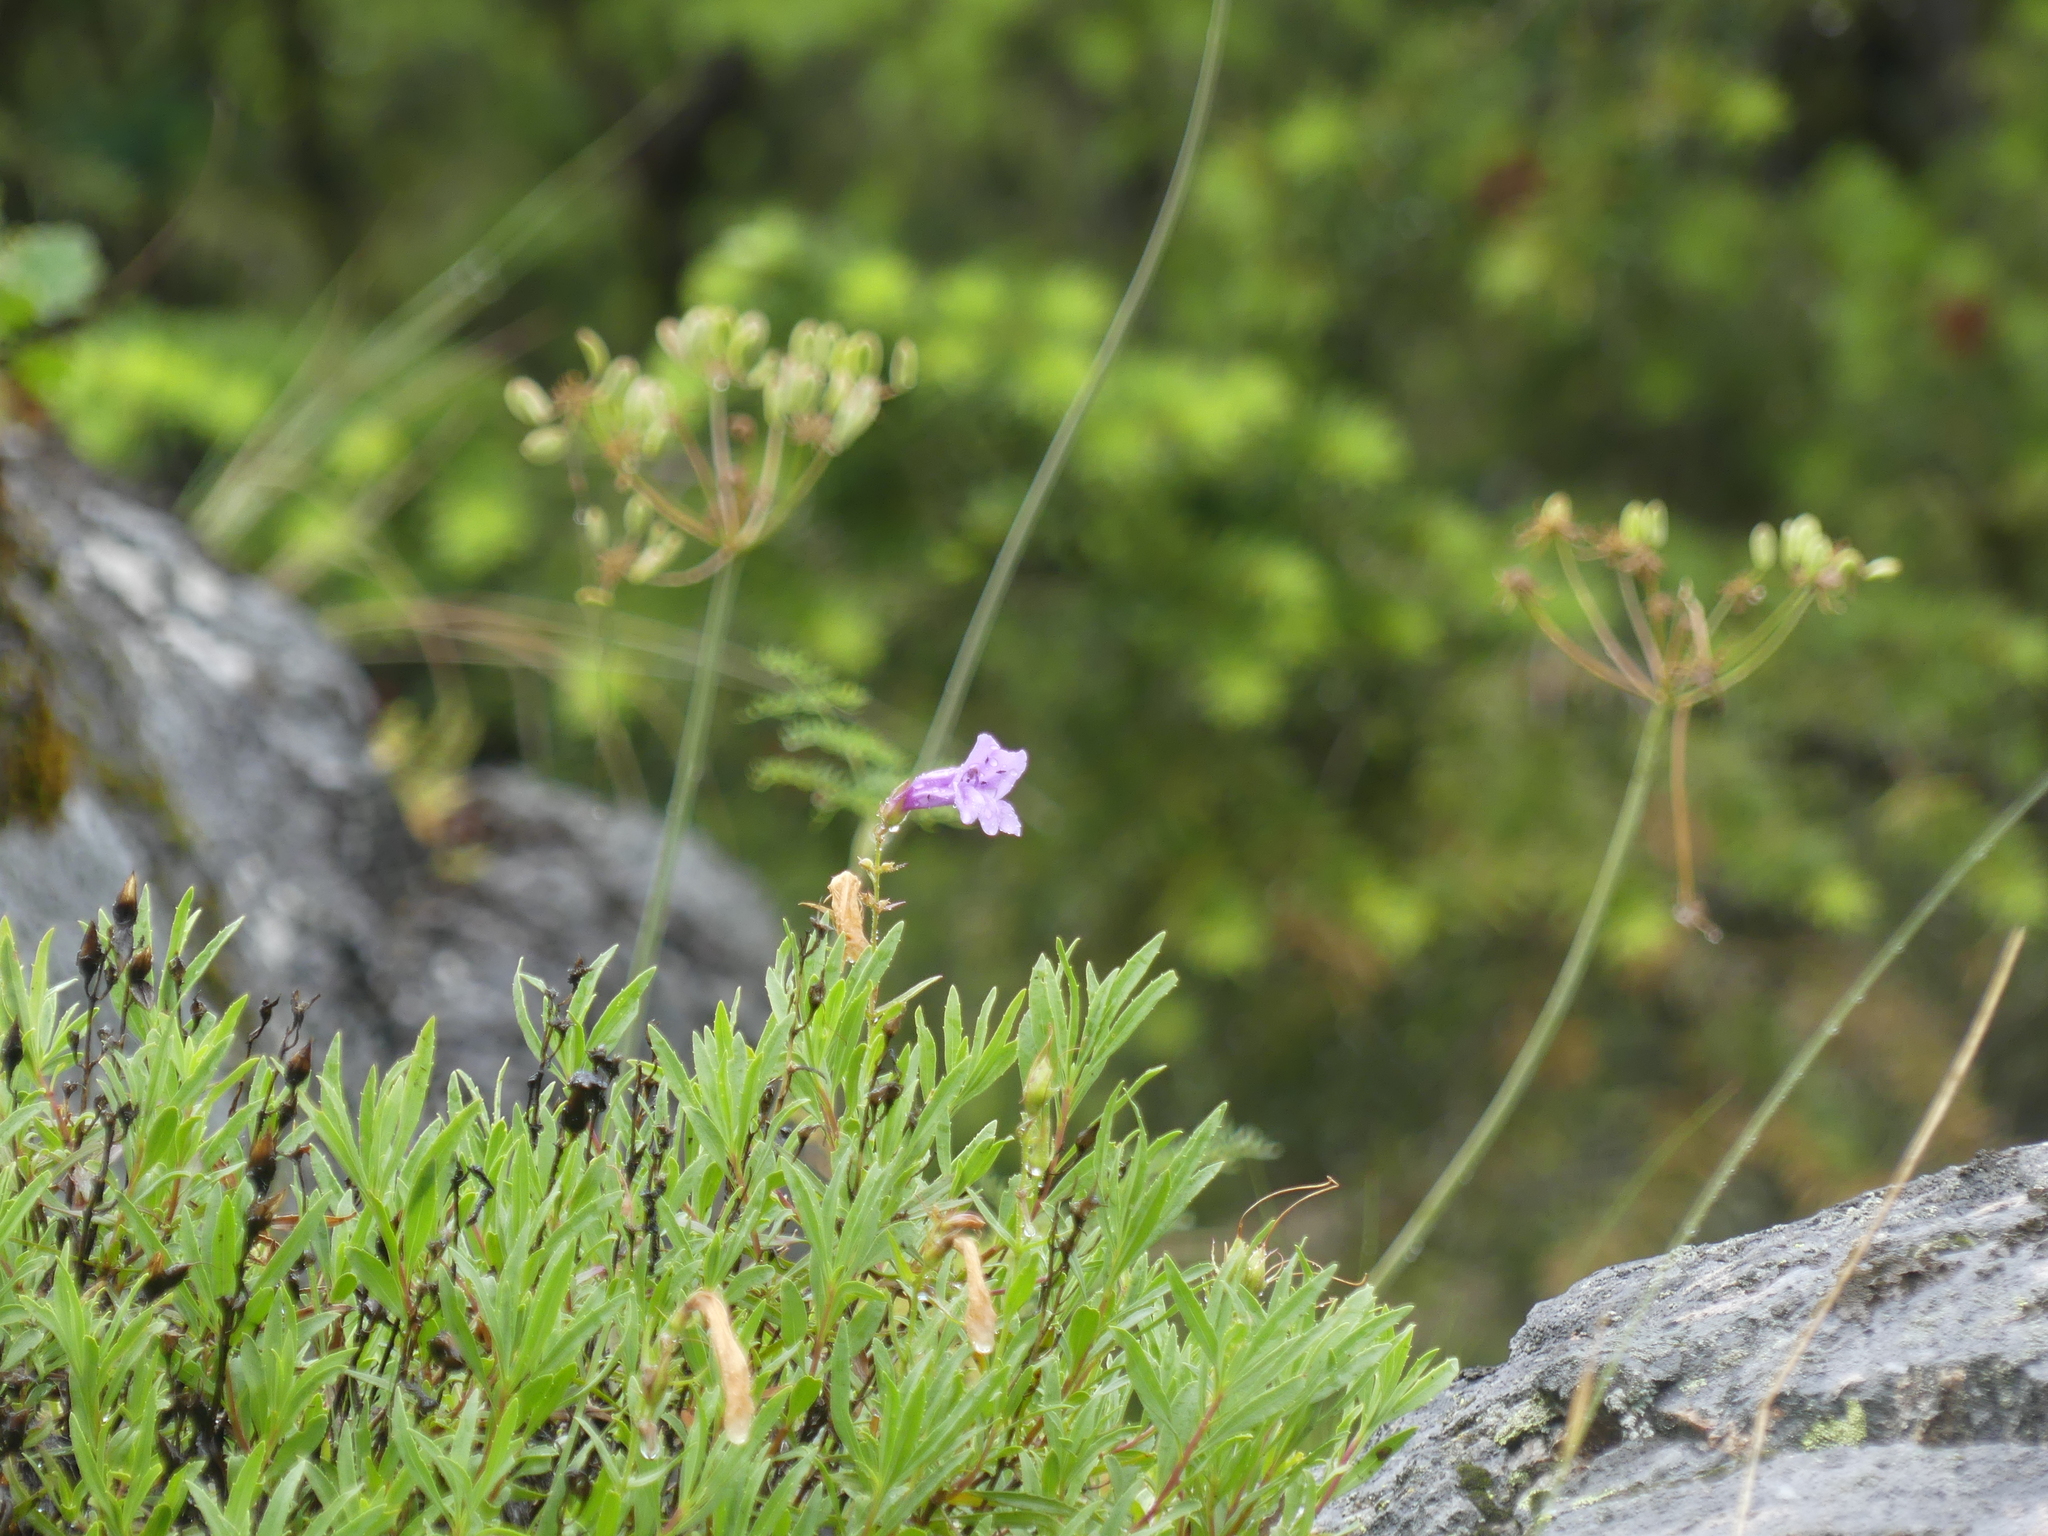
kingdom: Plantae
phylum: Tracheophyta
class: Magnoliopsida
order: Lamiales
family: Plantaginaceae
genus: Penstemon
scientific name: Penstemon fruticosus
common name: Bush penstemon
